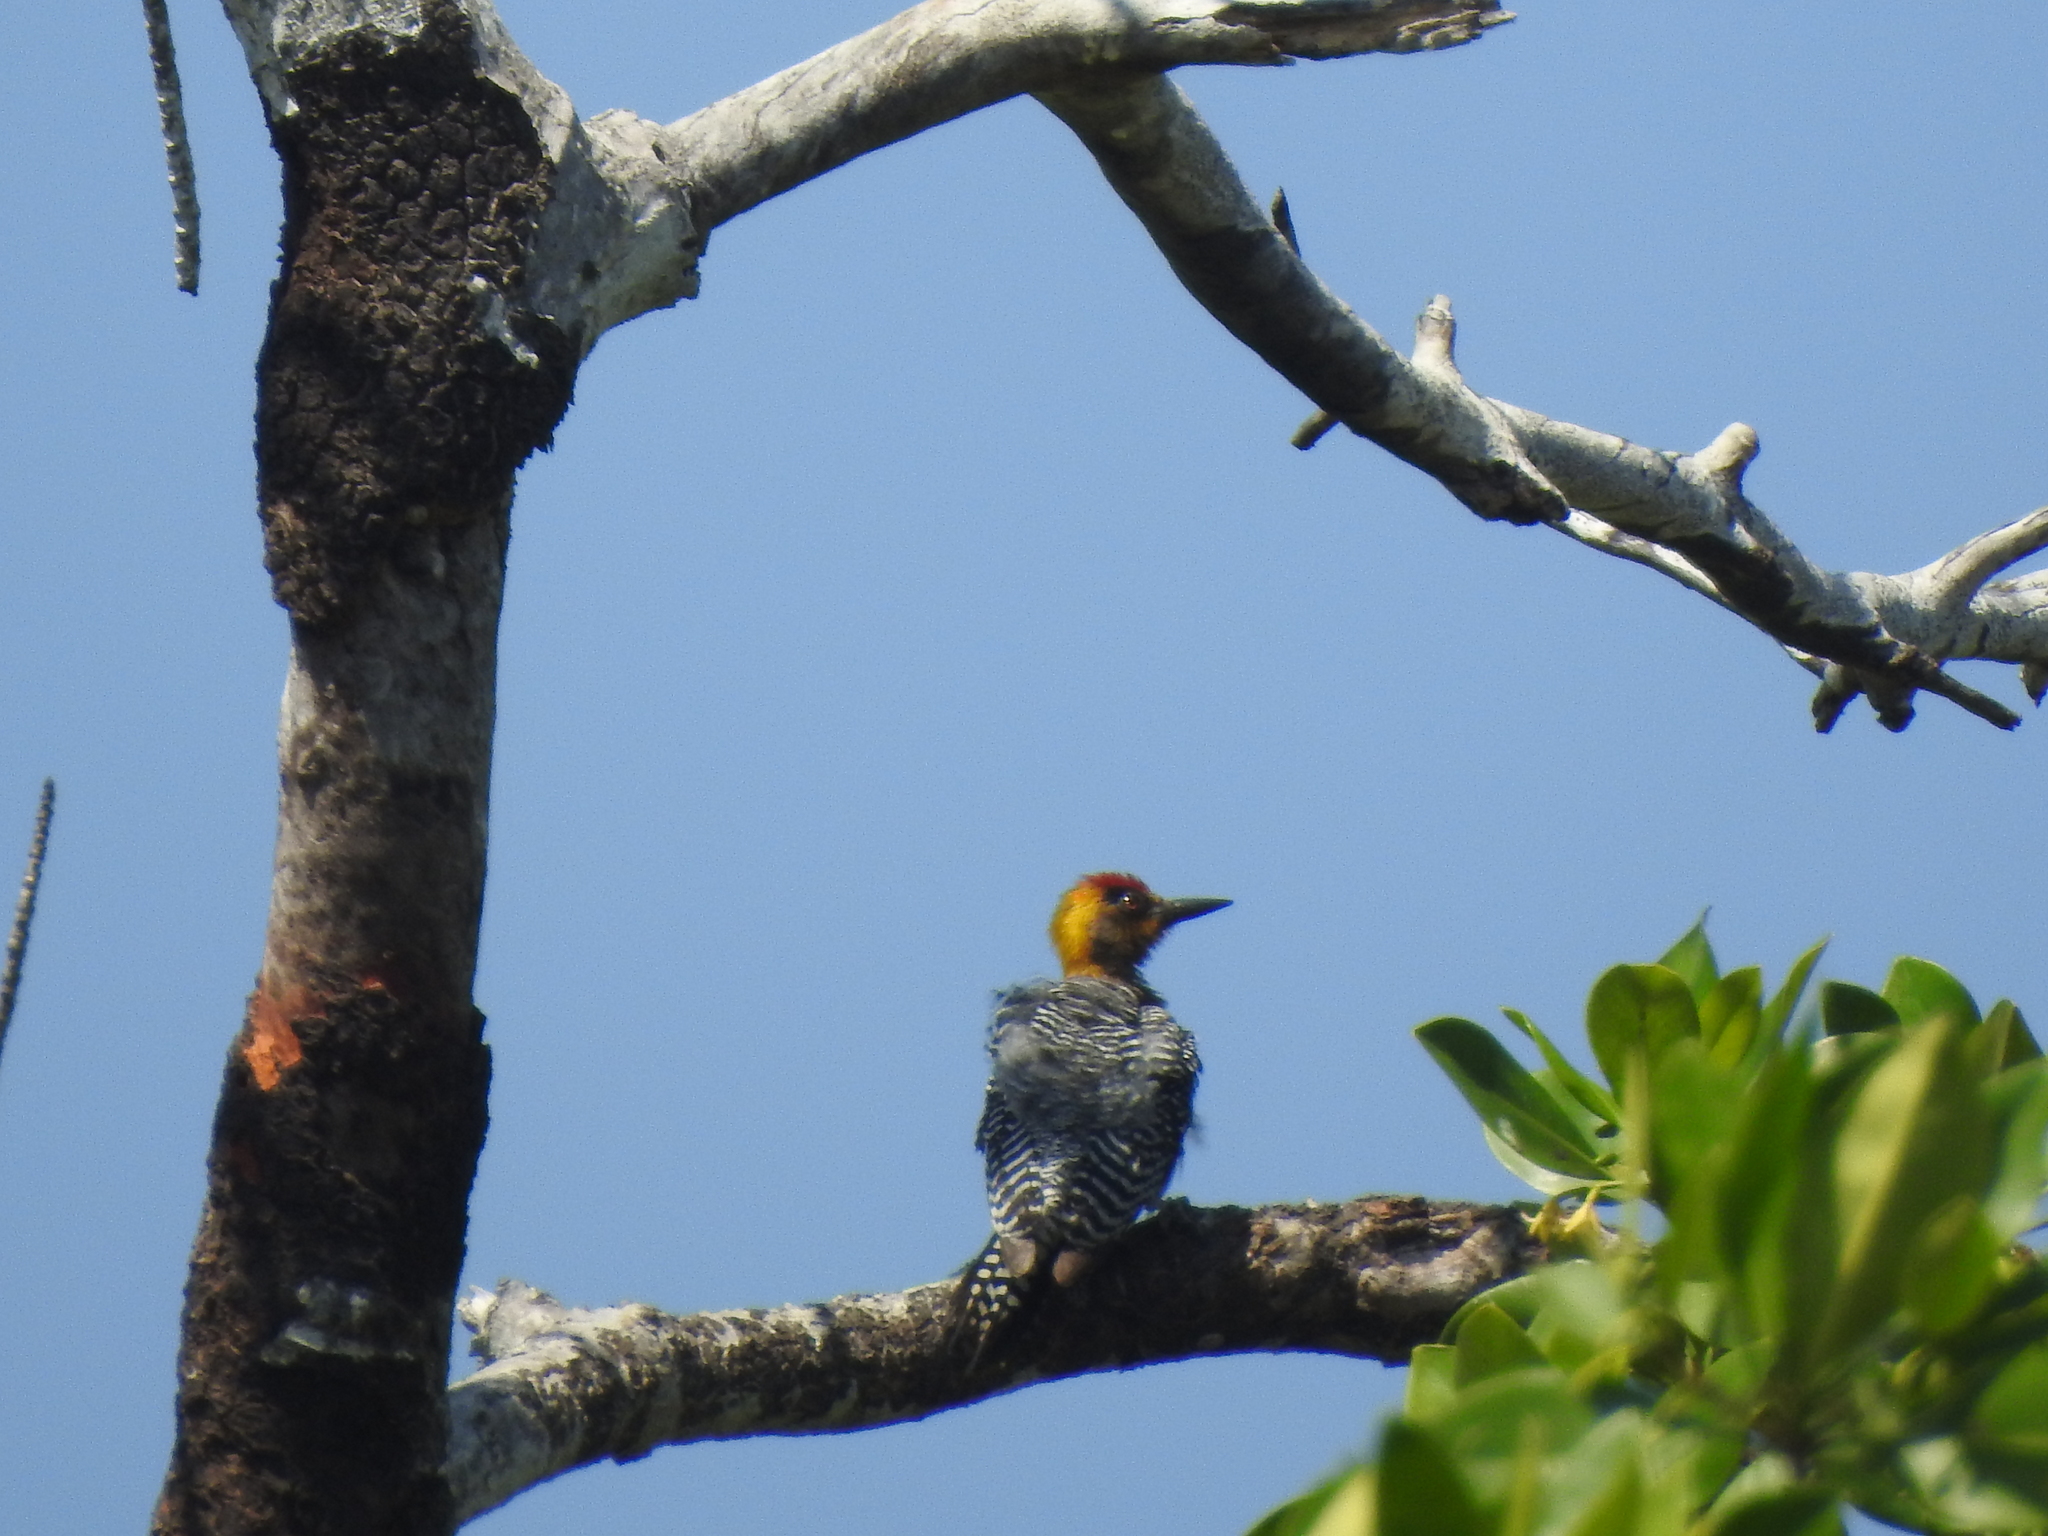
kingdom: Animalia
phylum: Chordata
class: Aves
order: Piciformes
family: Picidae
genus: Melanerpes
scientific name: Melanerpes chrysogenys
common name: Golden-cheeked woodpecker
